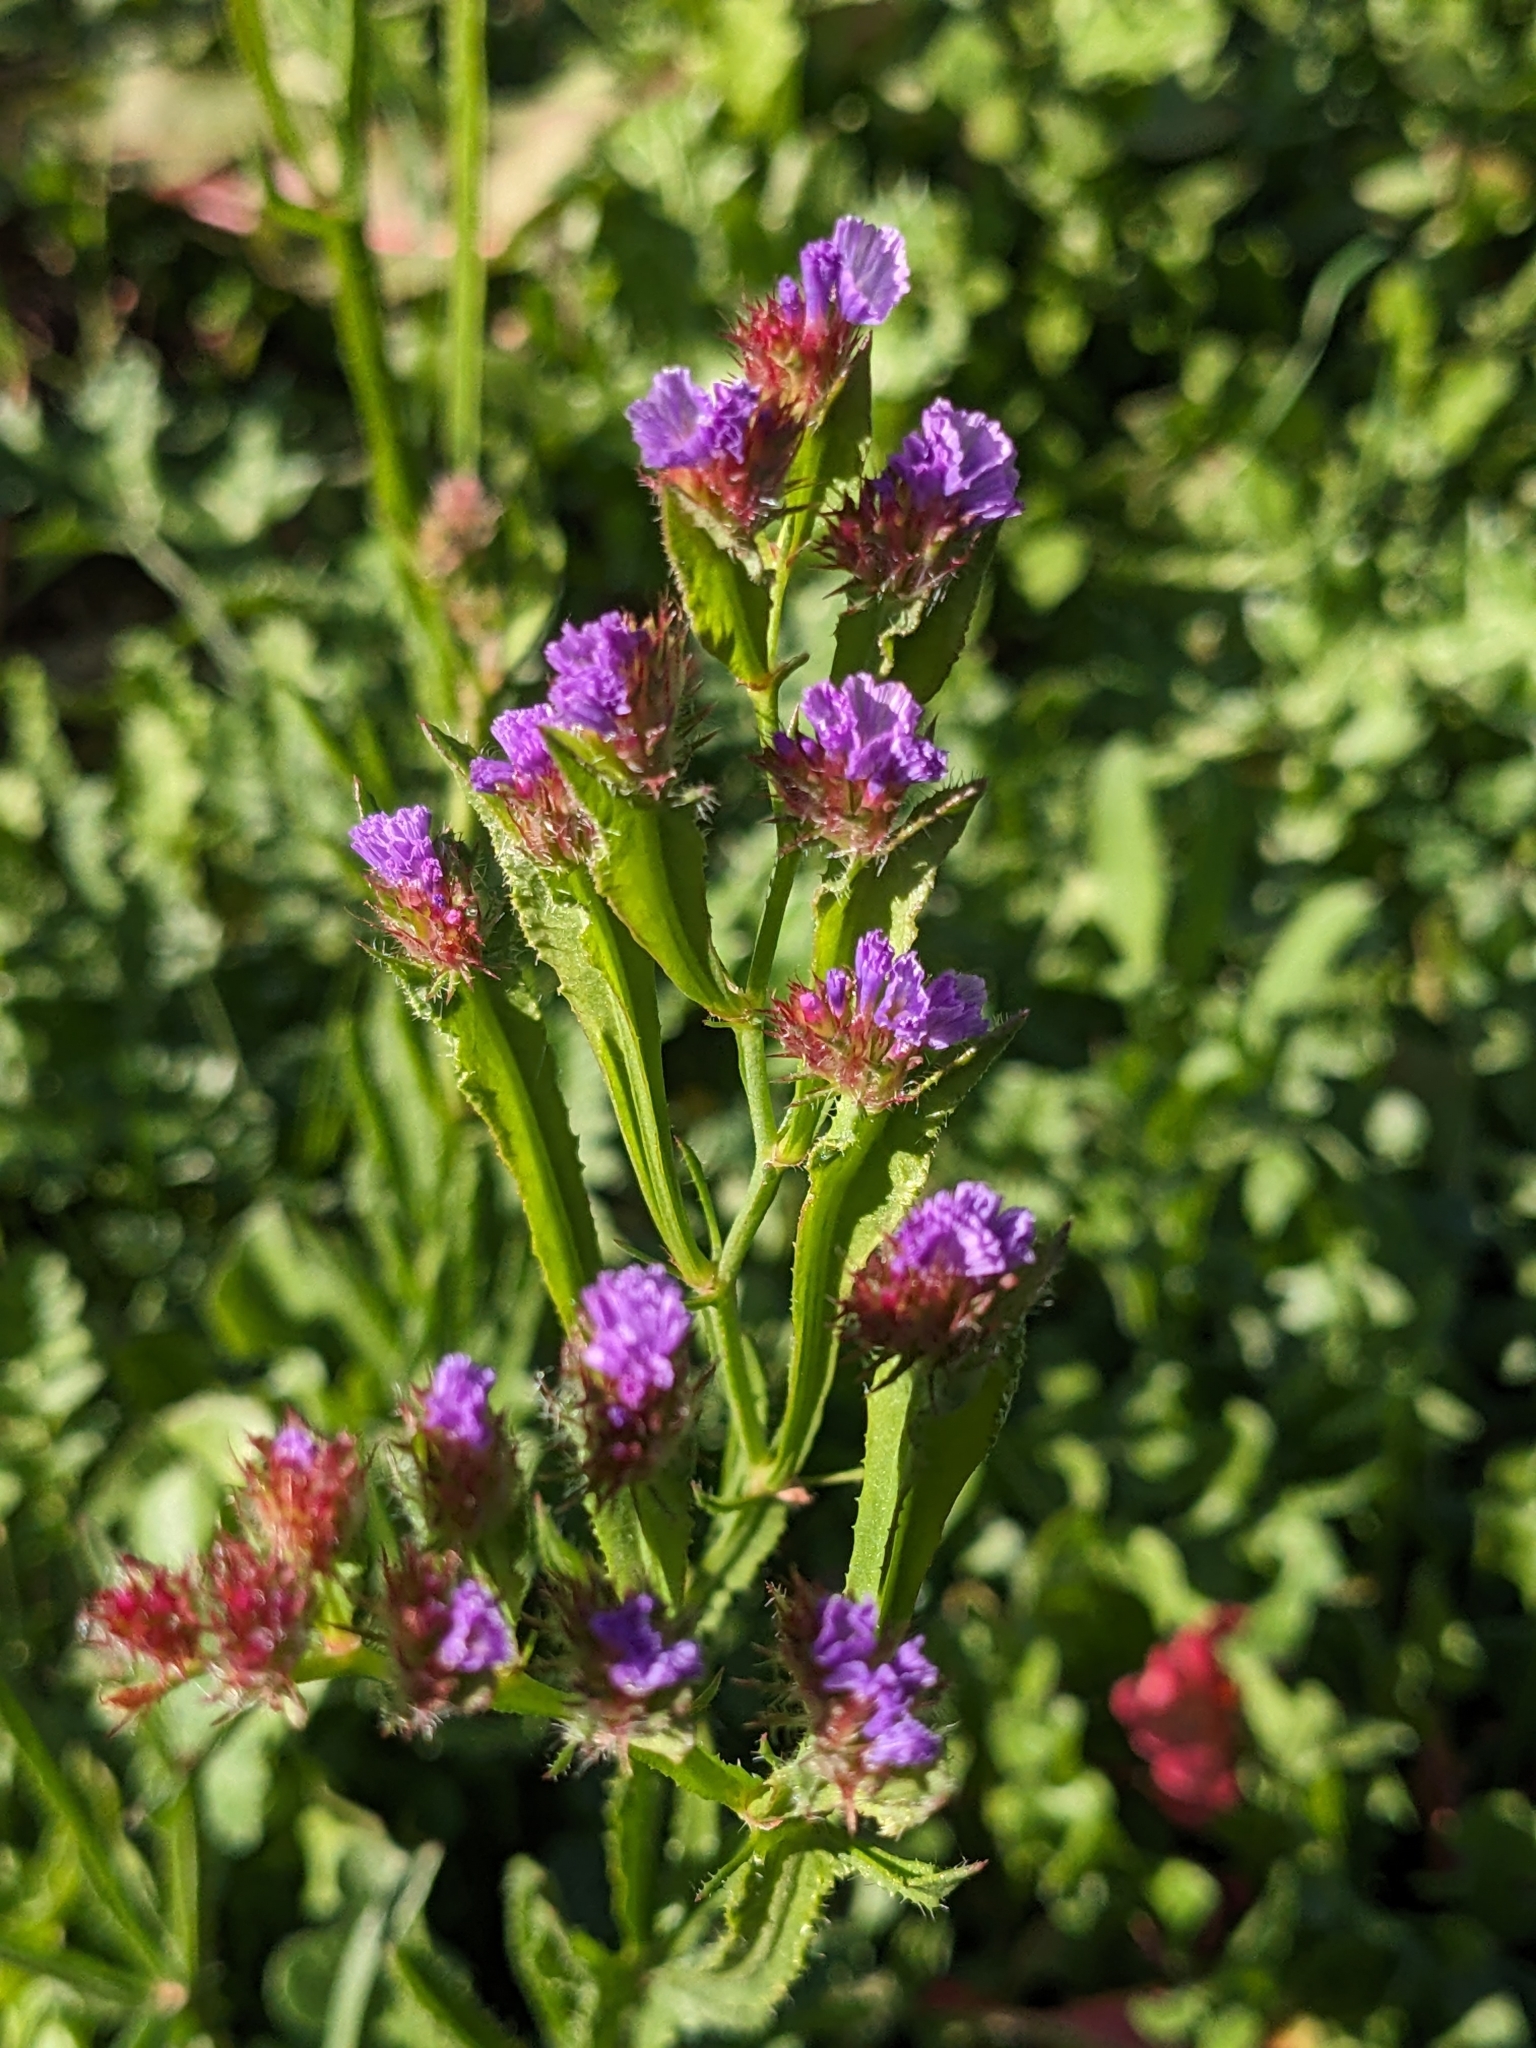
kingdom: Plantae
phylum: Tracheophyta
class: Magnoliopsida
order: Caryophyllales
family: Plumbaginaceae
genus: Limonium
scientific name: Limonium sinuatum
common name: Statice
